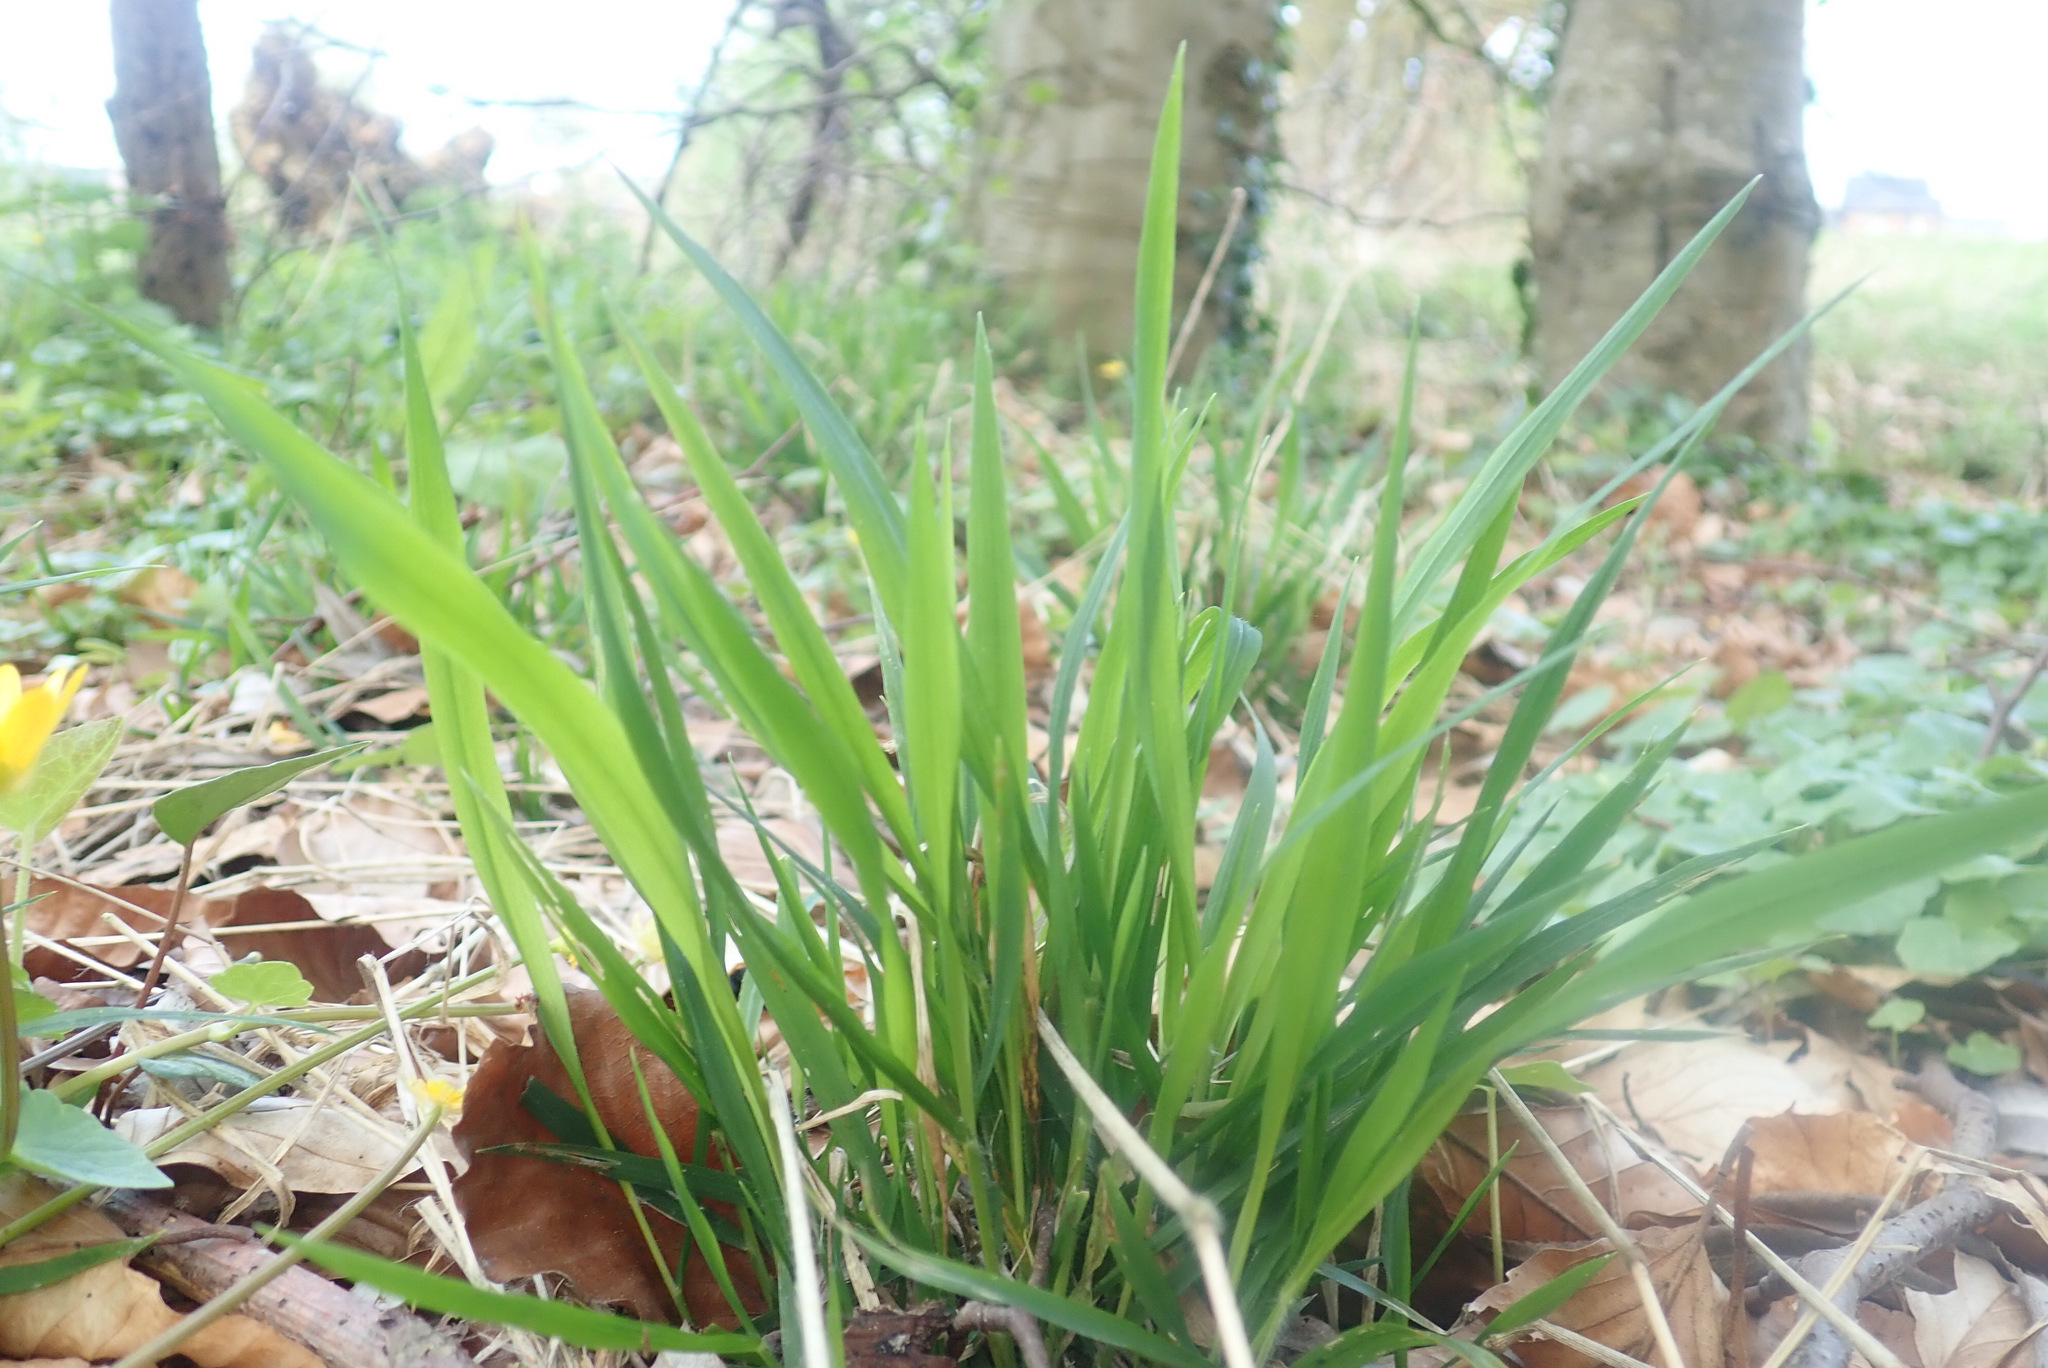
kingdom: Plantae
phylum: Tracheophyta
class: Liliopsida
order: Poales
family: Poaceae
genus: Brachypodium
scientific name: Brachypodium sylvaticum
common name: False-brome
